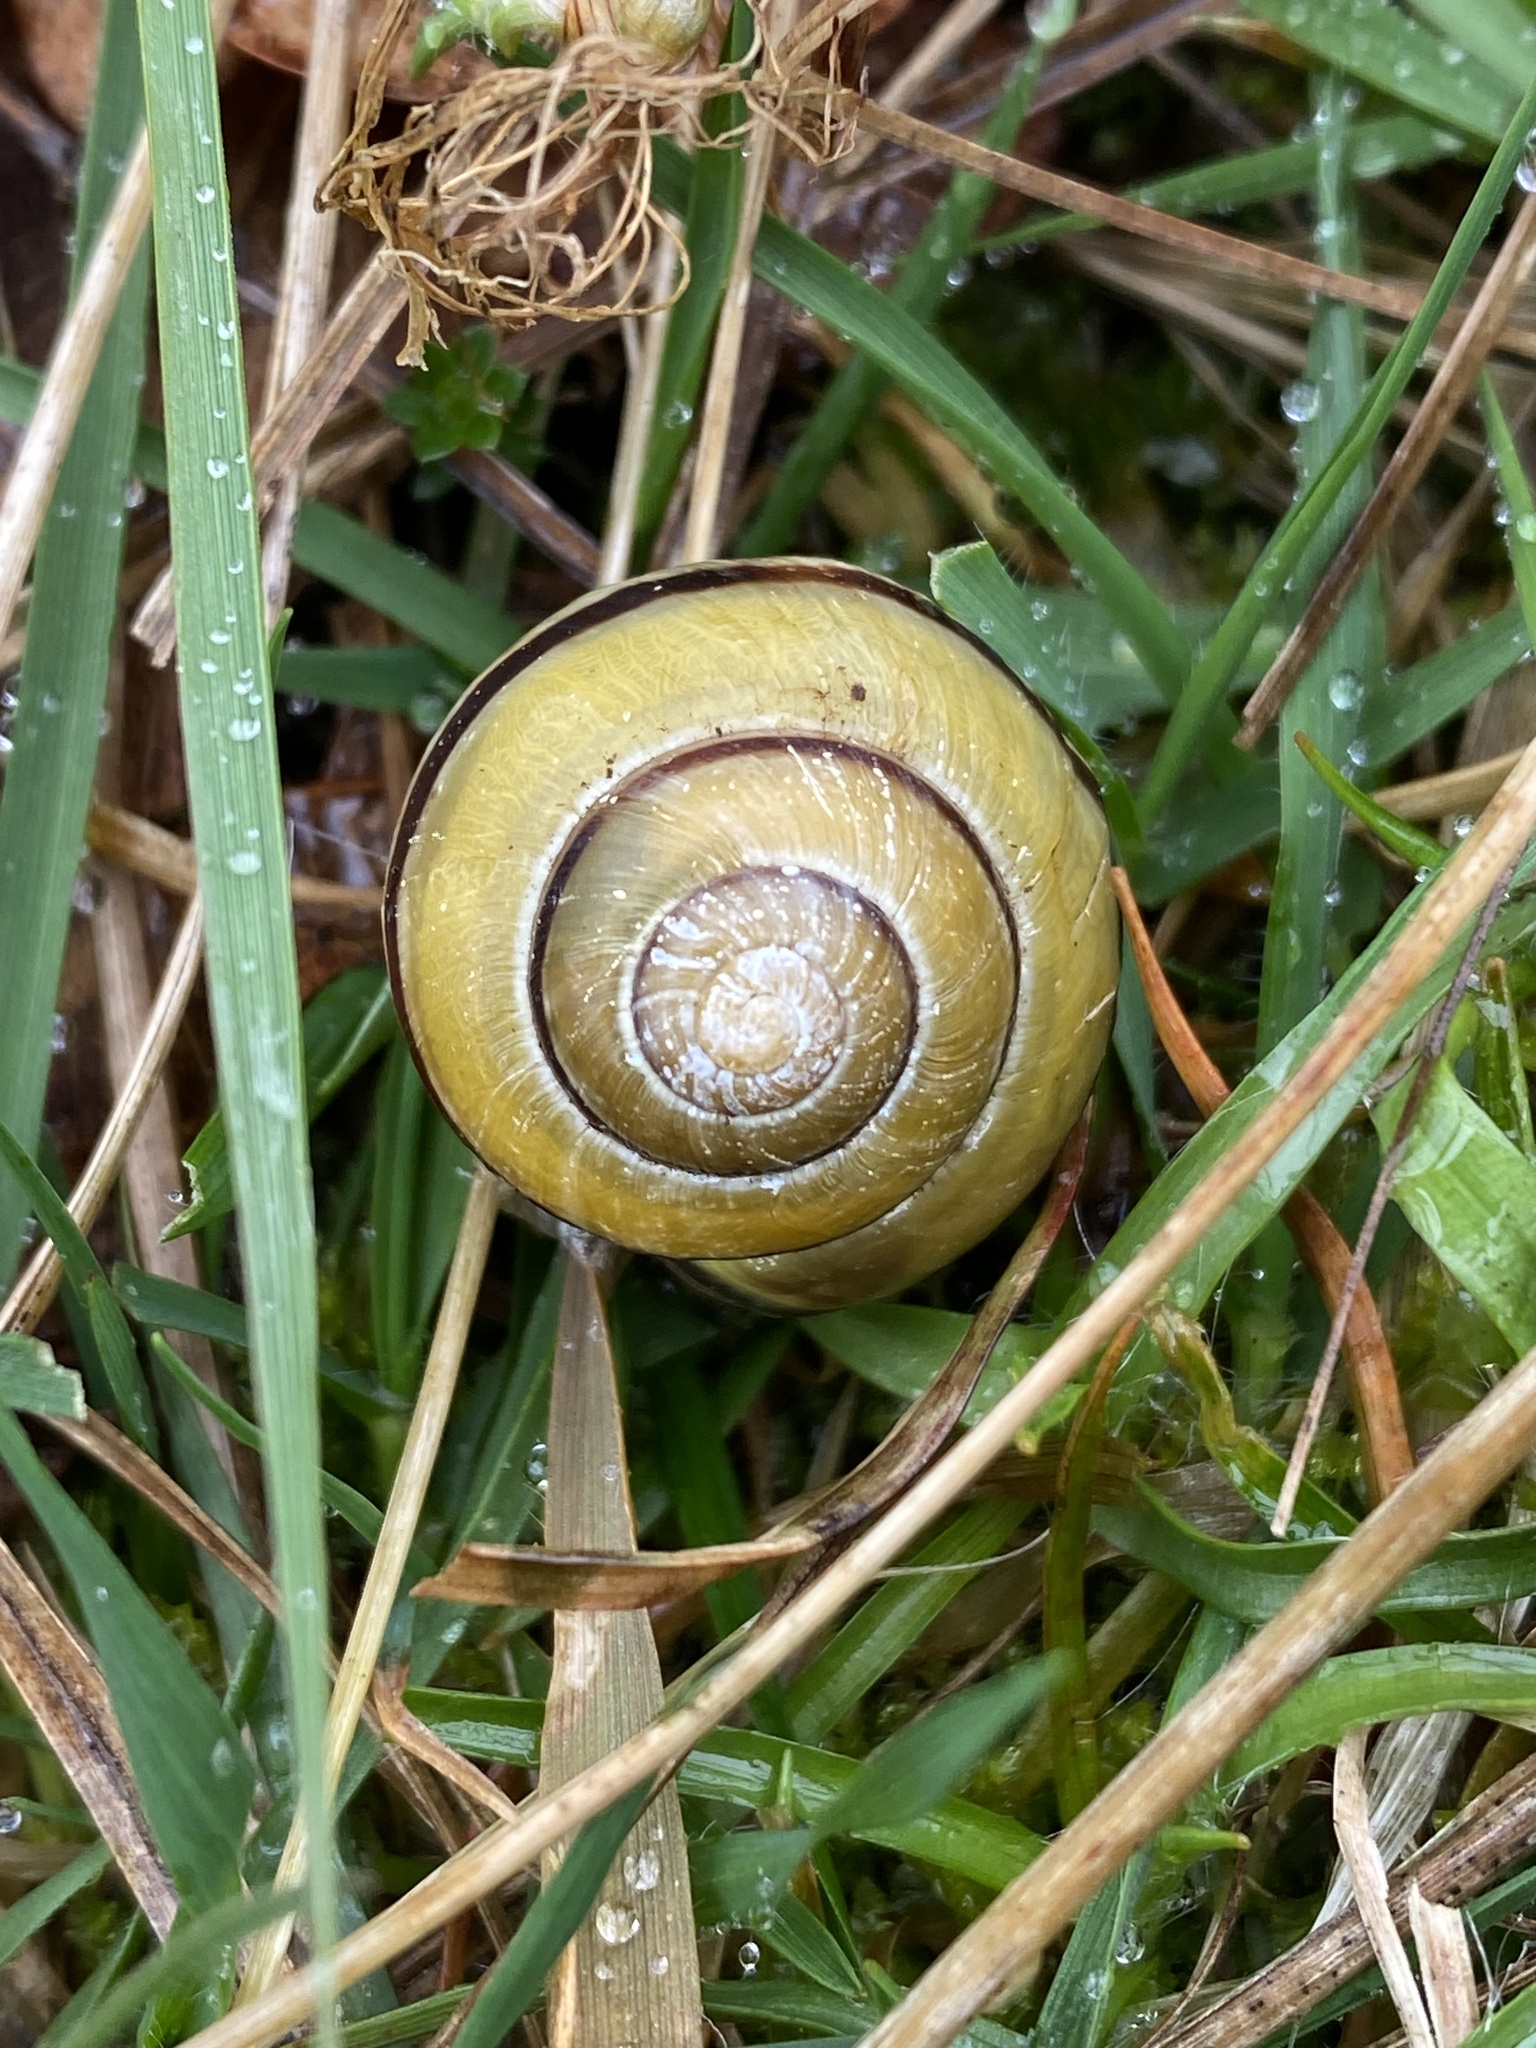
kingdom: Animalia
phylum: Mollusca
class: Gastropoda
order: Stylommatophora
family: Helicidae
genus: Cepaea
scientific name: Cepaea nemoralis
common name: Grovesnail
